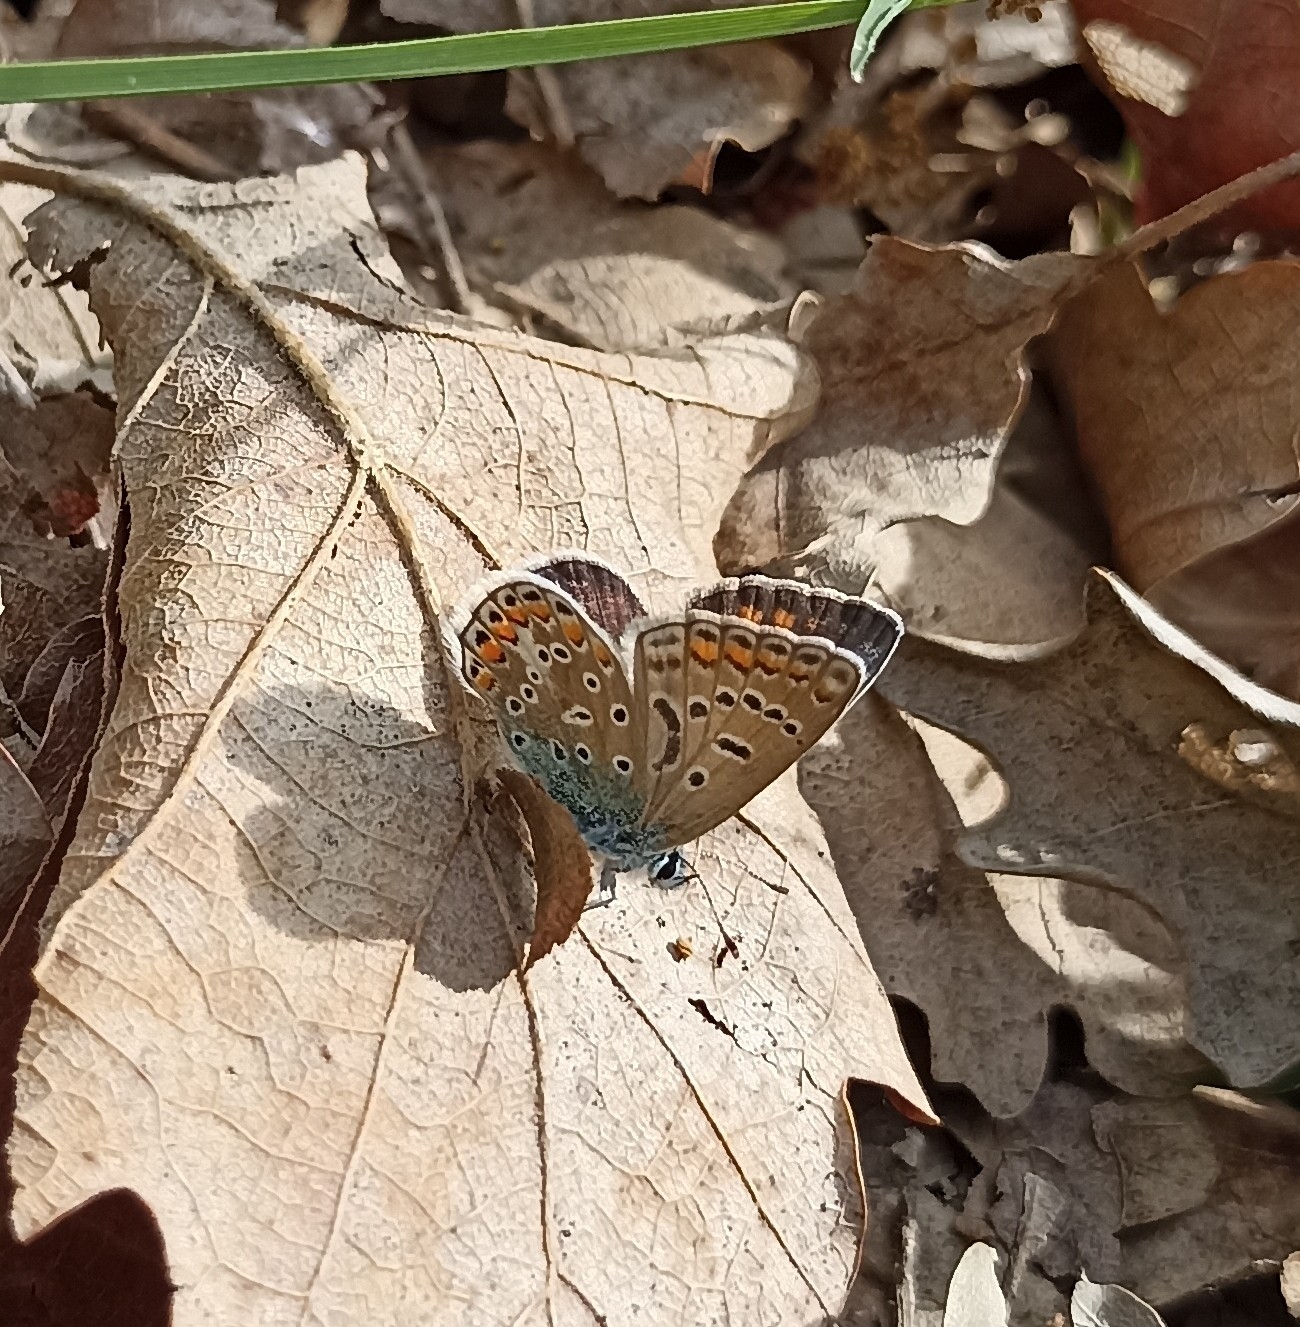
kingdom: Animalia
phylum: Arthropoda
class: Insecta
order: Lepidoptera
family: Lycaenidae
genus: Polyommatus
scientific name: Polyommatus icarus
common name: Common blue
